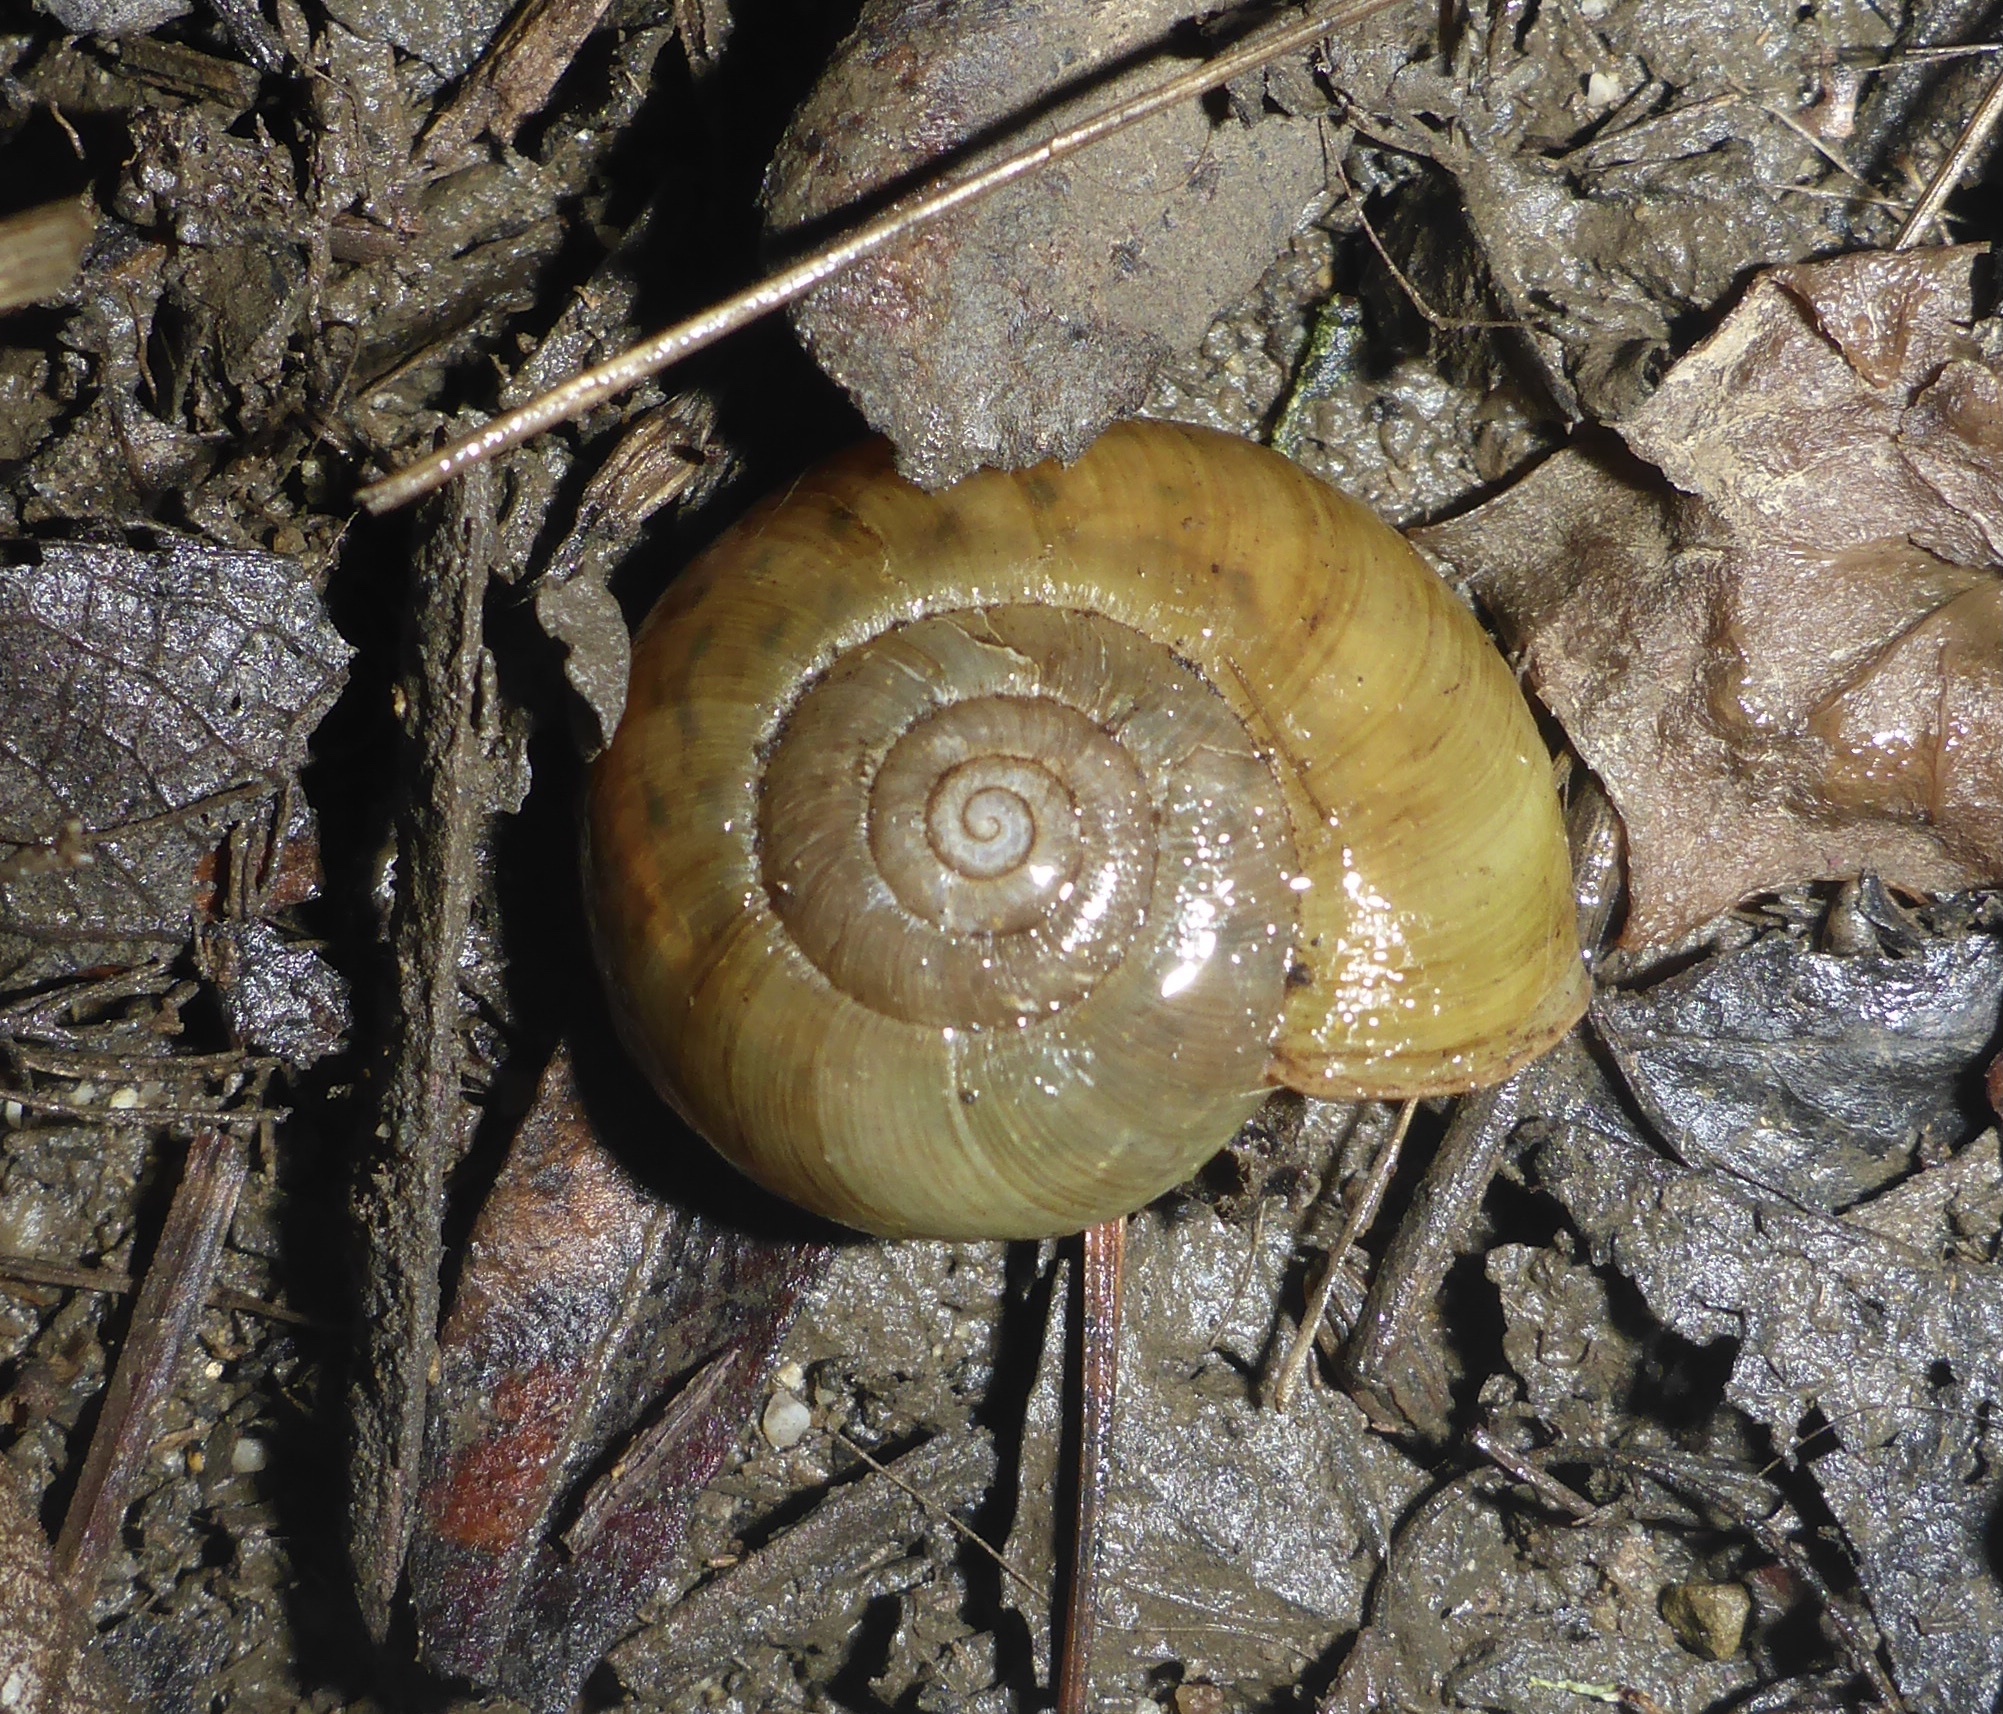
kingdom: Animalia
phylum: Mollusca
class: Gastropoda
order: Stylommatophora
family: Haplotrematidae
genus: Haplotrema
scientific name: Haplotrema minimum
